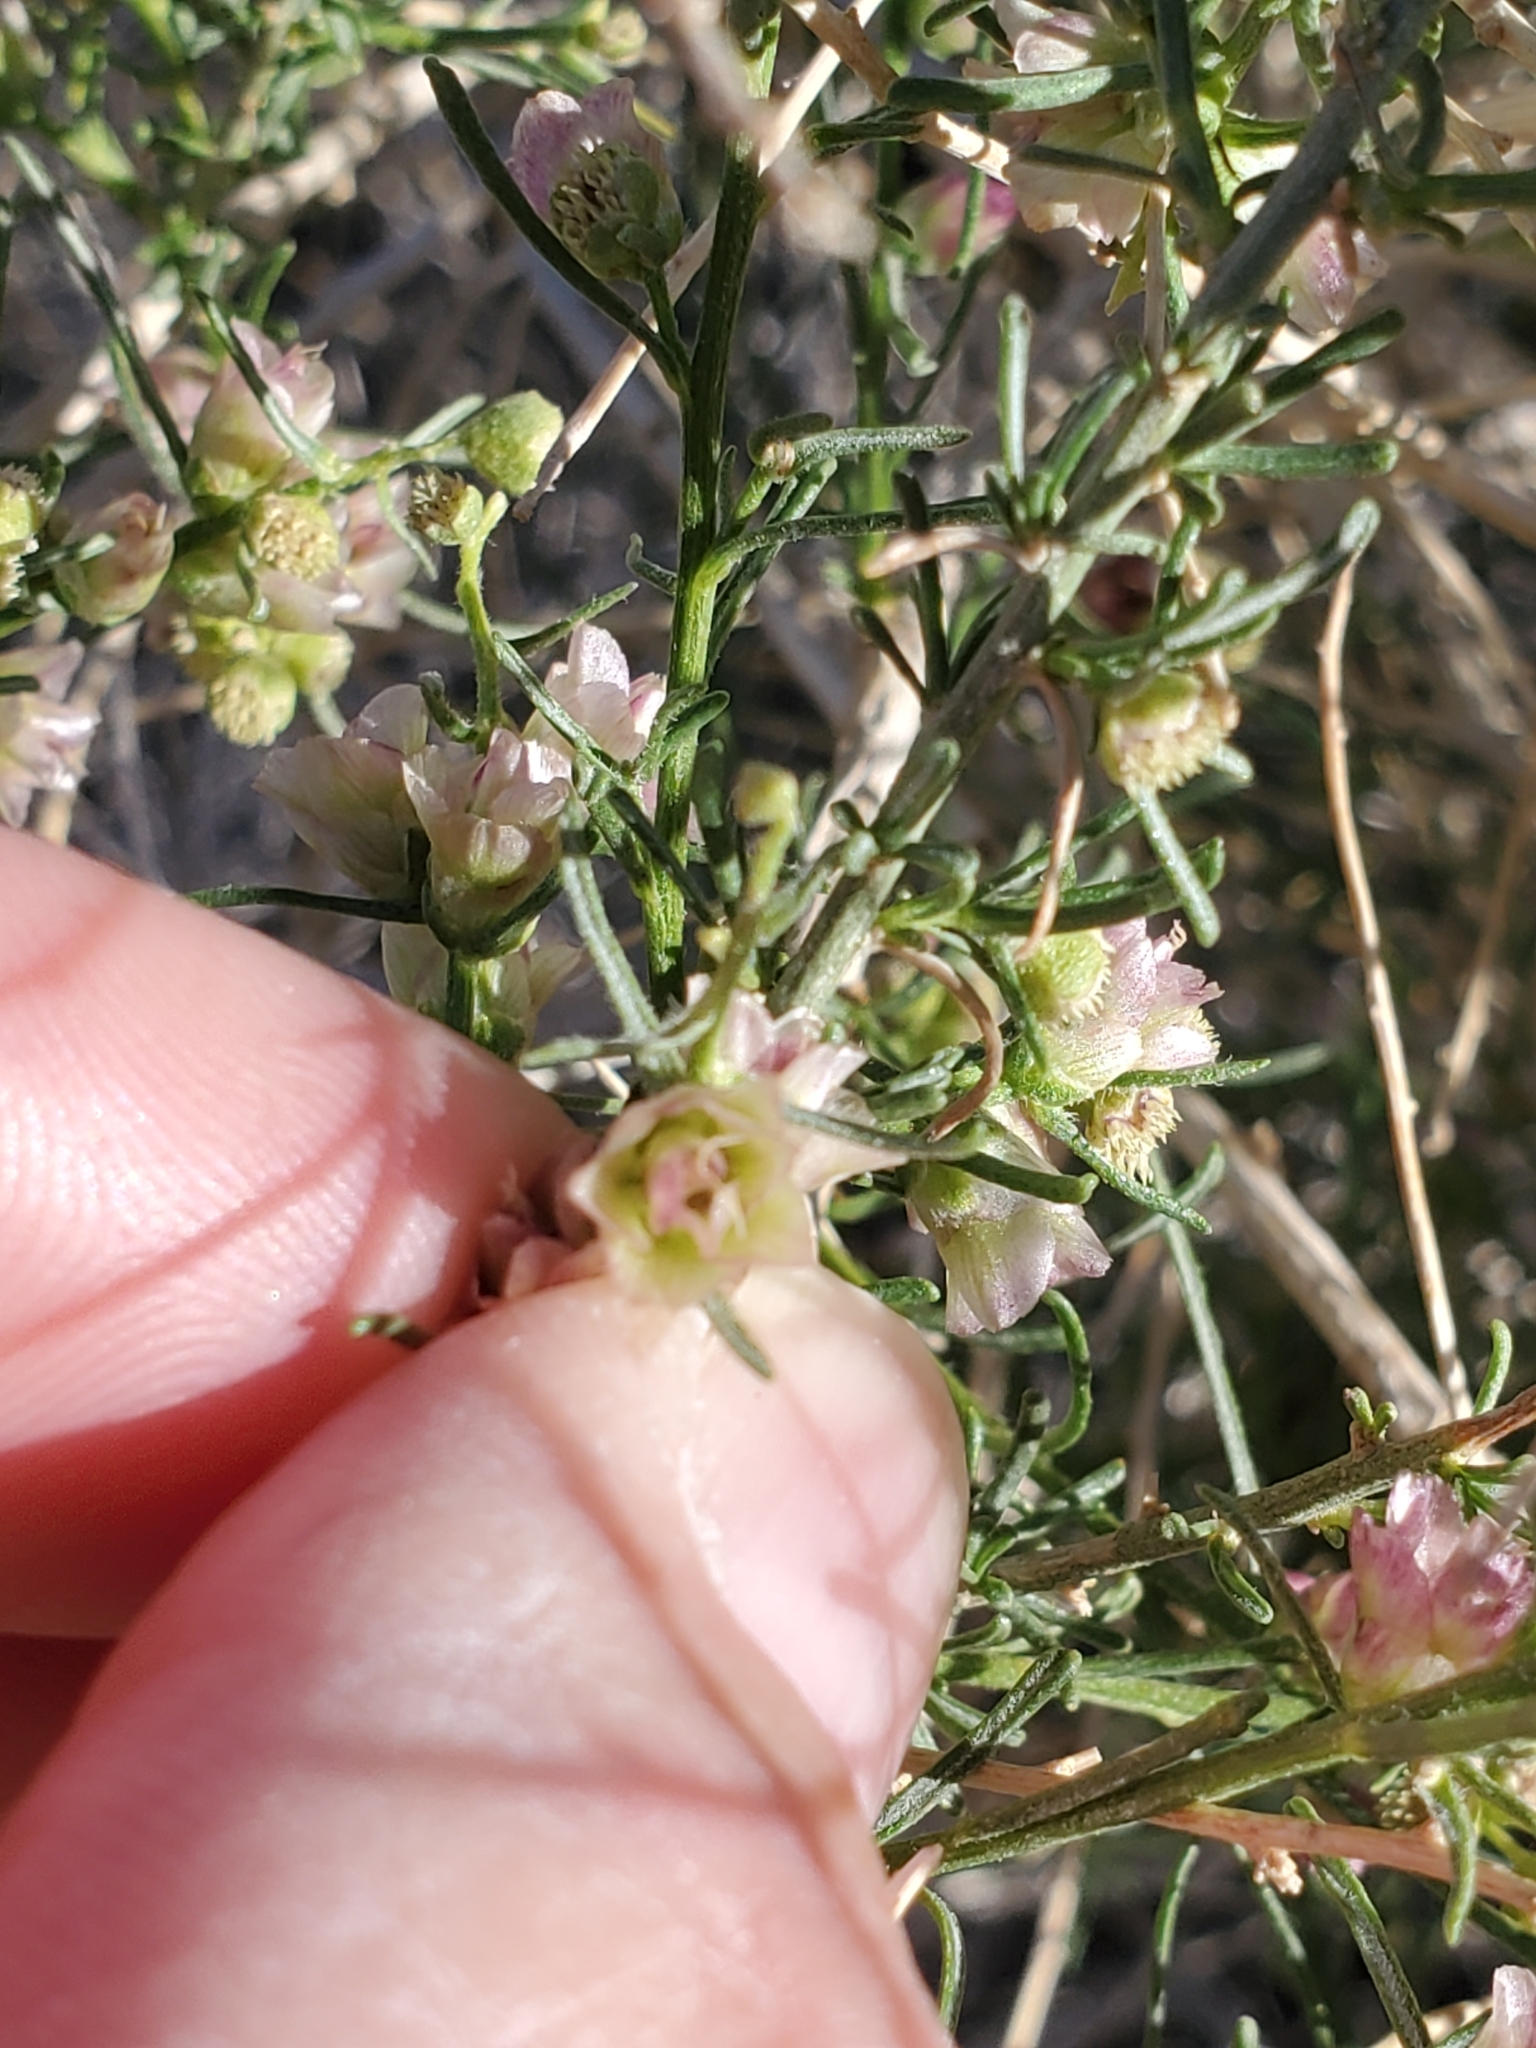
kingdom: Plantae
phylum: Tracheophyta
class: Magnoliopsida
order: Asterales
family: Asteraceae
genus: Ambrosia
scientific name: Ambrosia salsola
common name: Burrobrush
